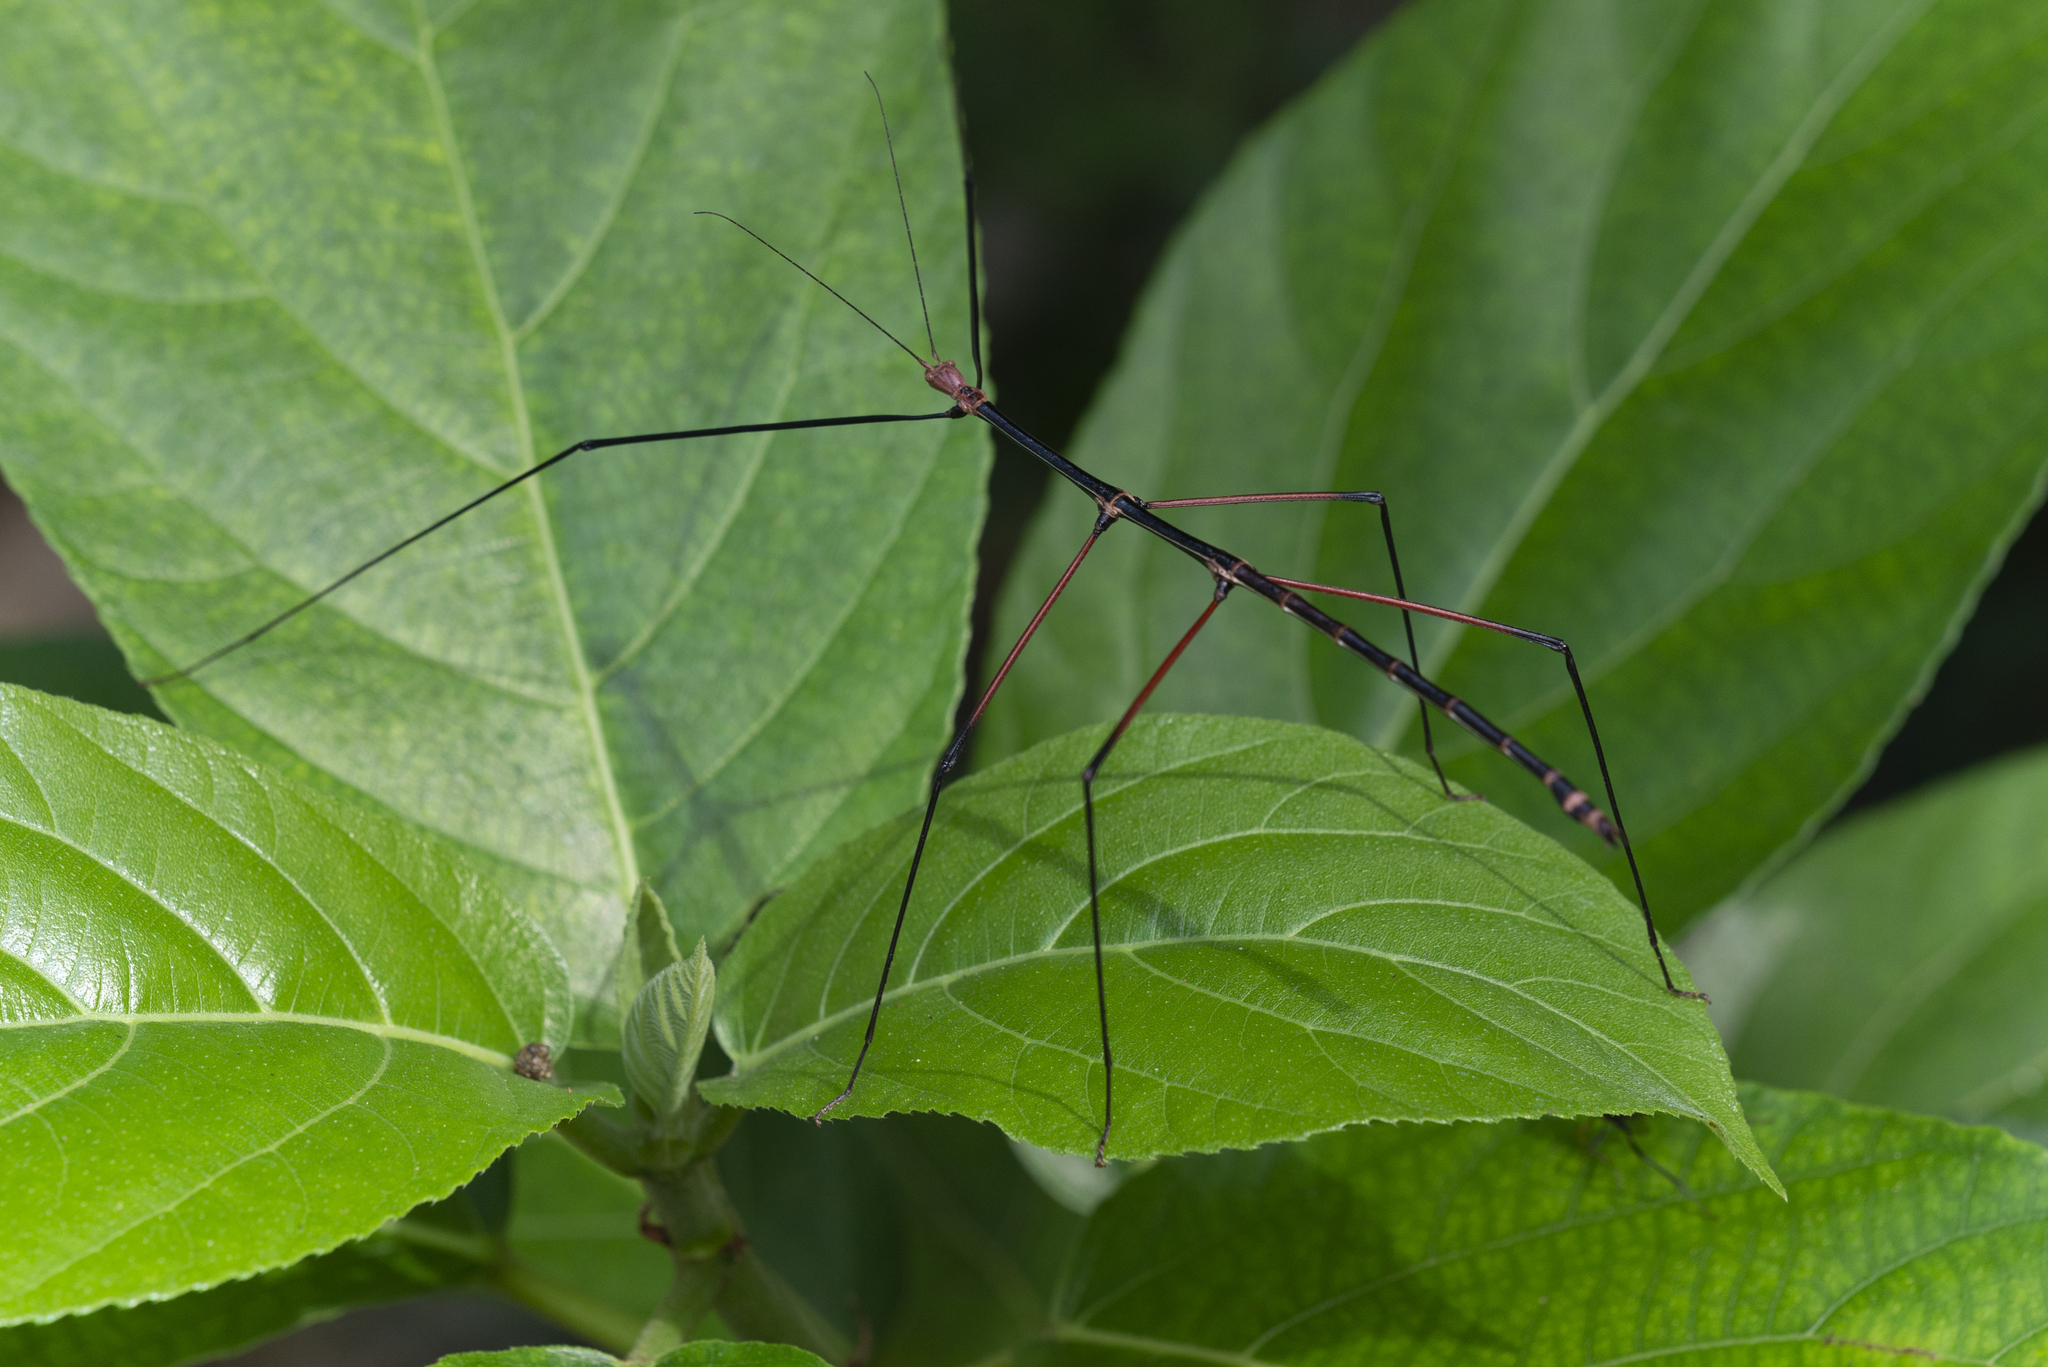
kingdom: Animalia
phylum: Arthropoda
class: Insecta
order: Phasmida
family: Phasmatidae
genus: Ramulus
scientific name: Ramulus caii
